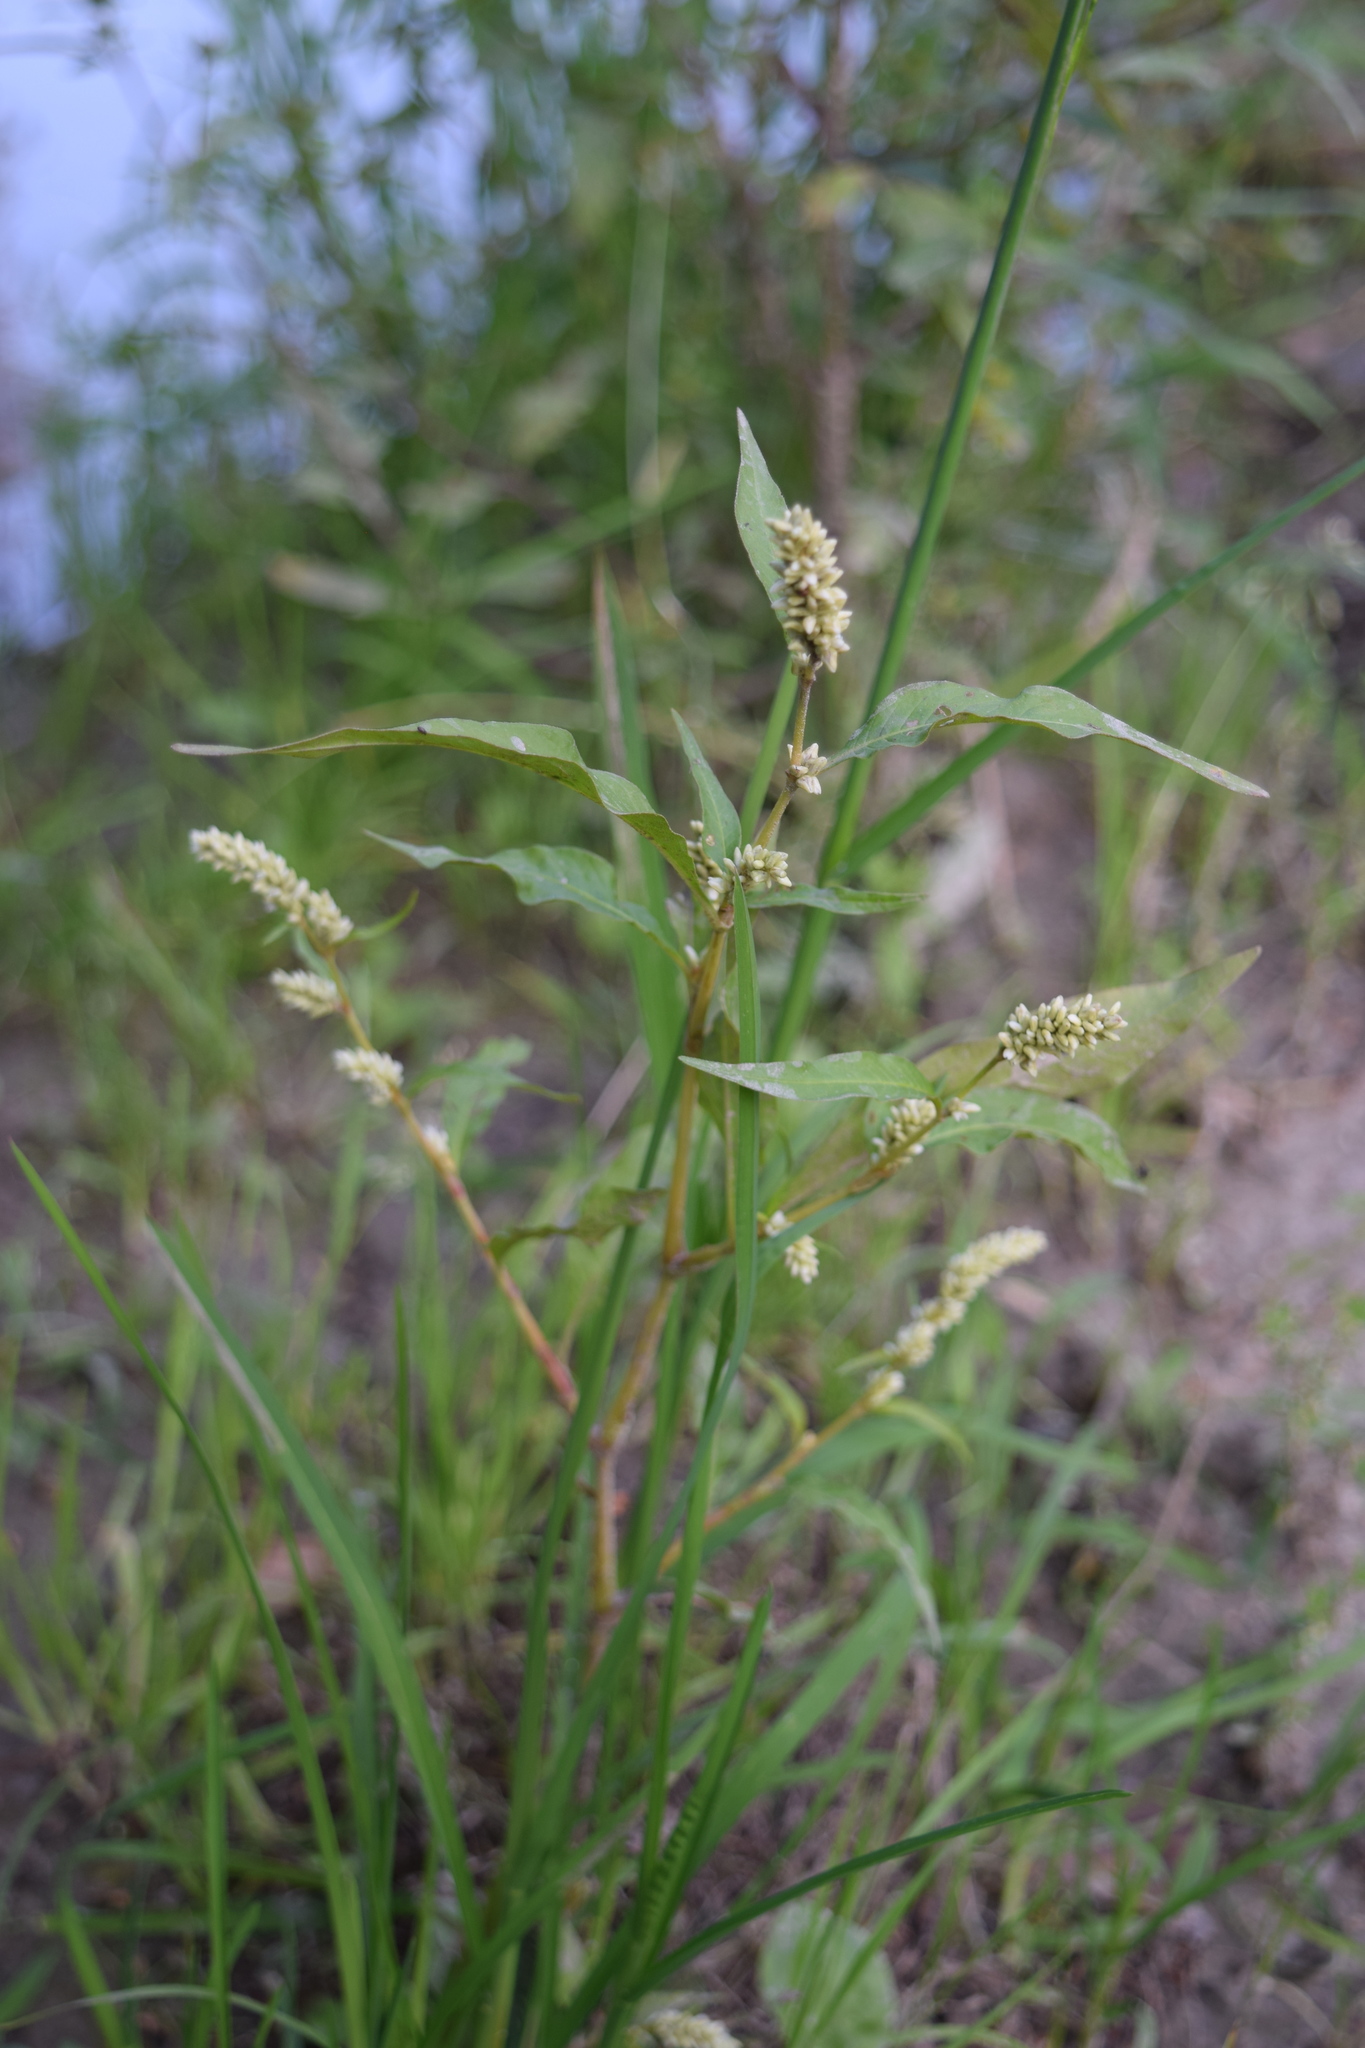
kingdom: Plantae
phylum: Tracheophyta
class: Magnoliopsida
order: Caryophyllales
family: Polygonaceae
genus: Persicaria
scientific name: Persicaria lapathifolia
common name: Curlytop knotweed
